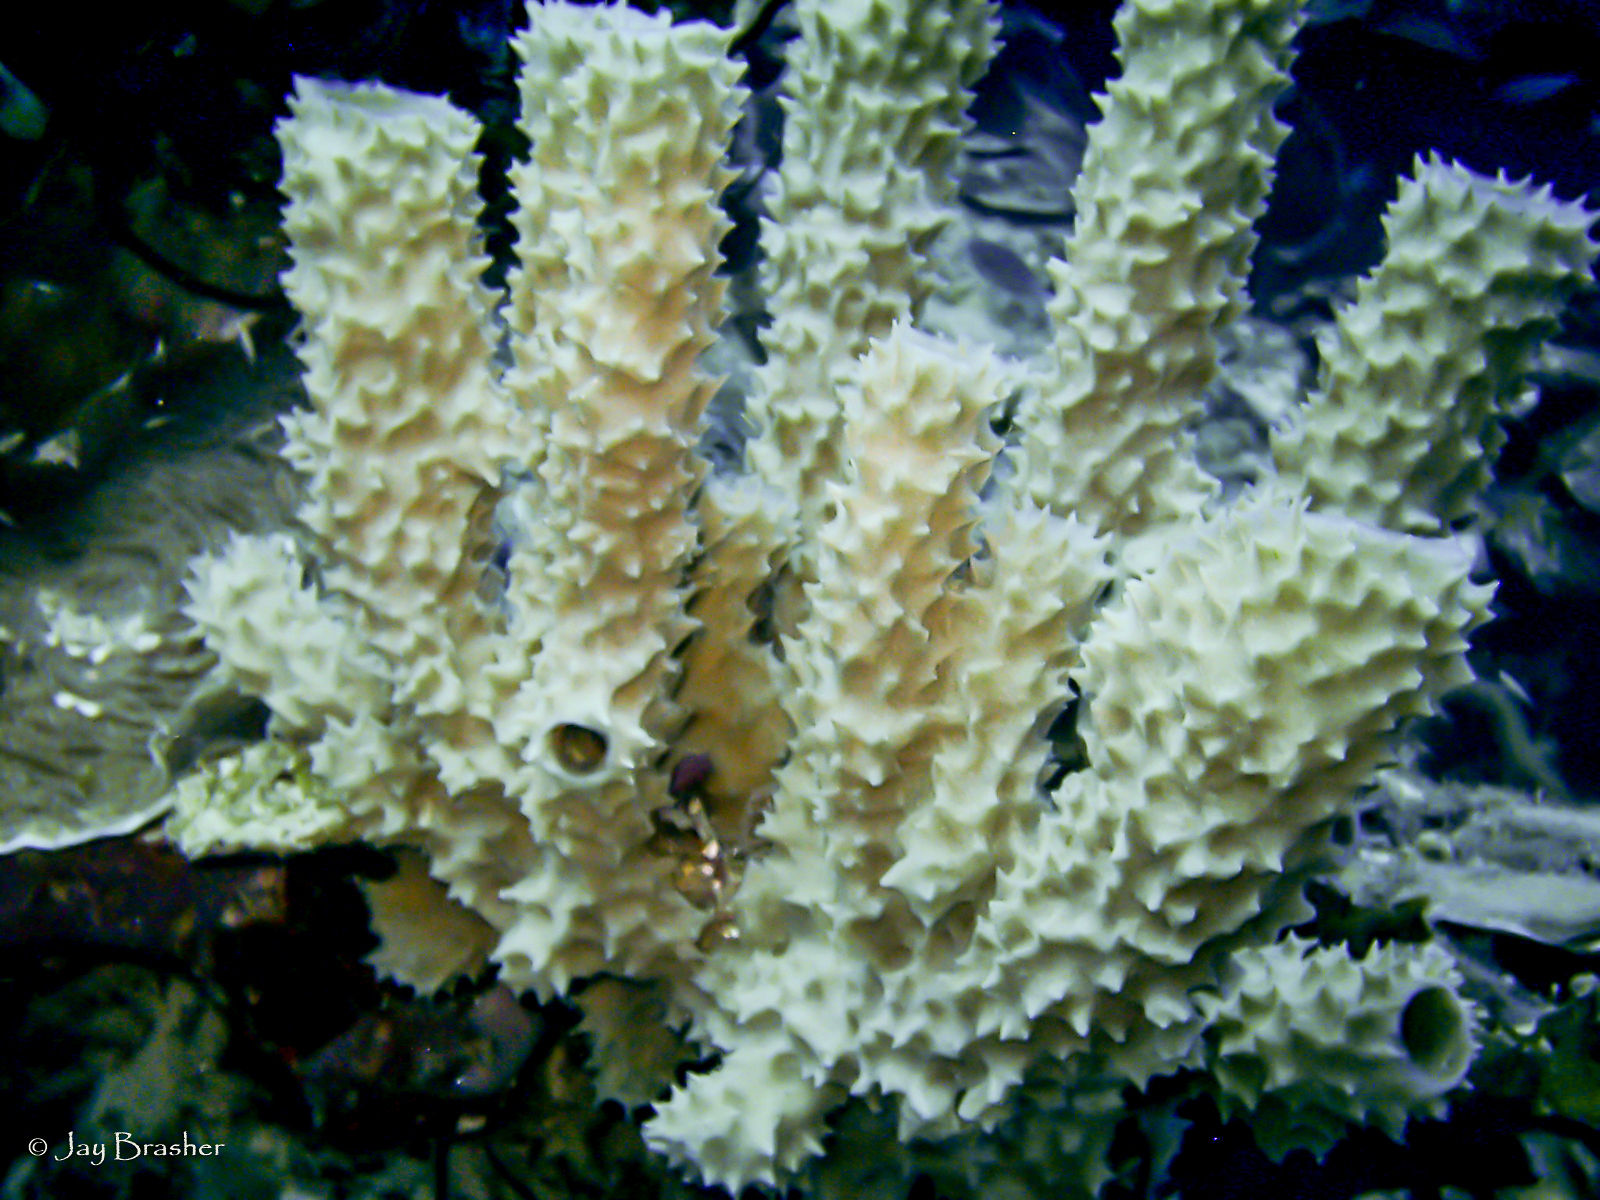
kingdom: Animalia
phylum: Porifera
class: Demospongiae
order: Haplosclerida
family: Callyspongiidae
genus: Callyspongia
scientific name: Callyspongia aculeata
